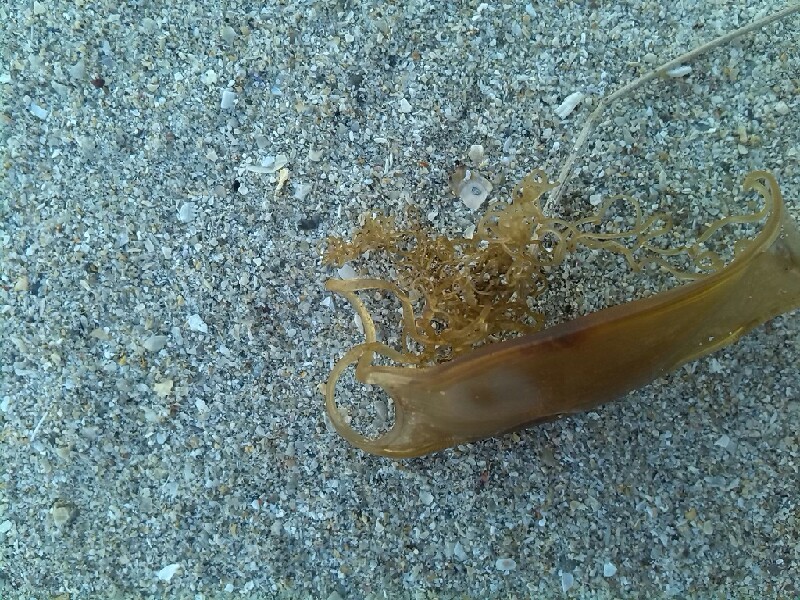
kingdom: Animalia
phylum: Chordata
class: Elasmobranchii
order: Carcharhiniformes
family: Scyliorhinidae
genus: Scyliorhinus
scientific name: Scyliorhinus canicula
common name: Lesser spotted dogfish
